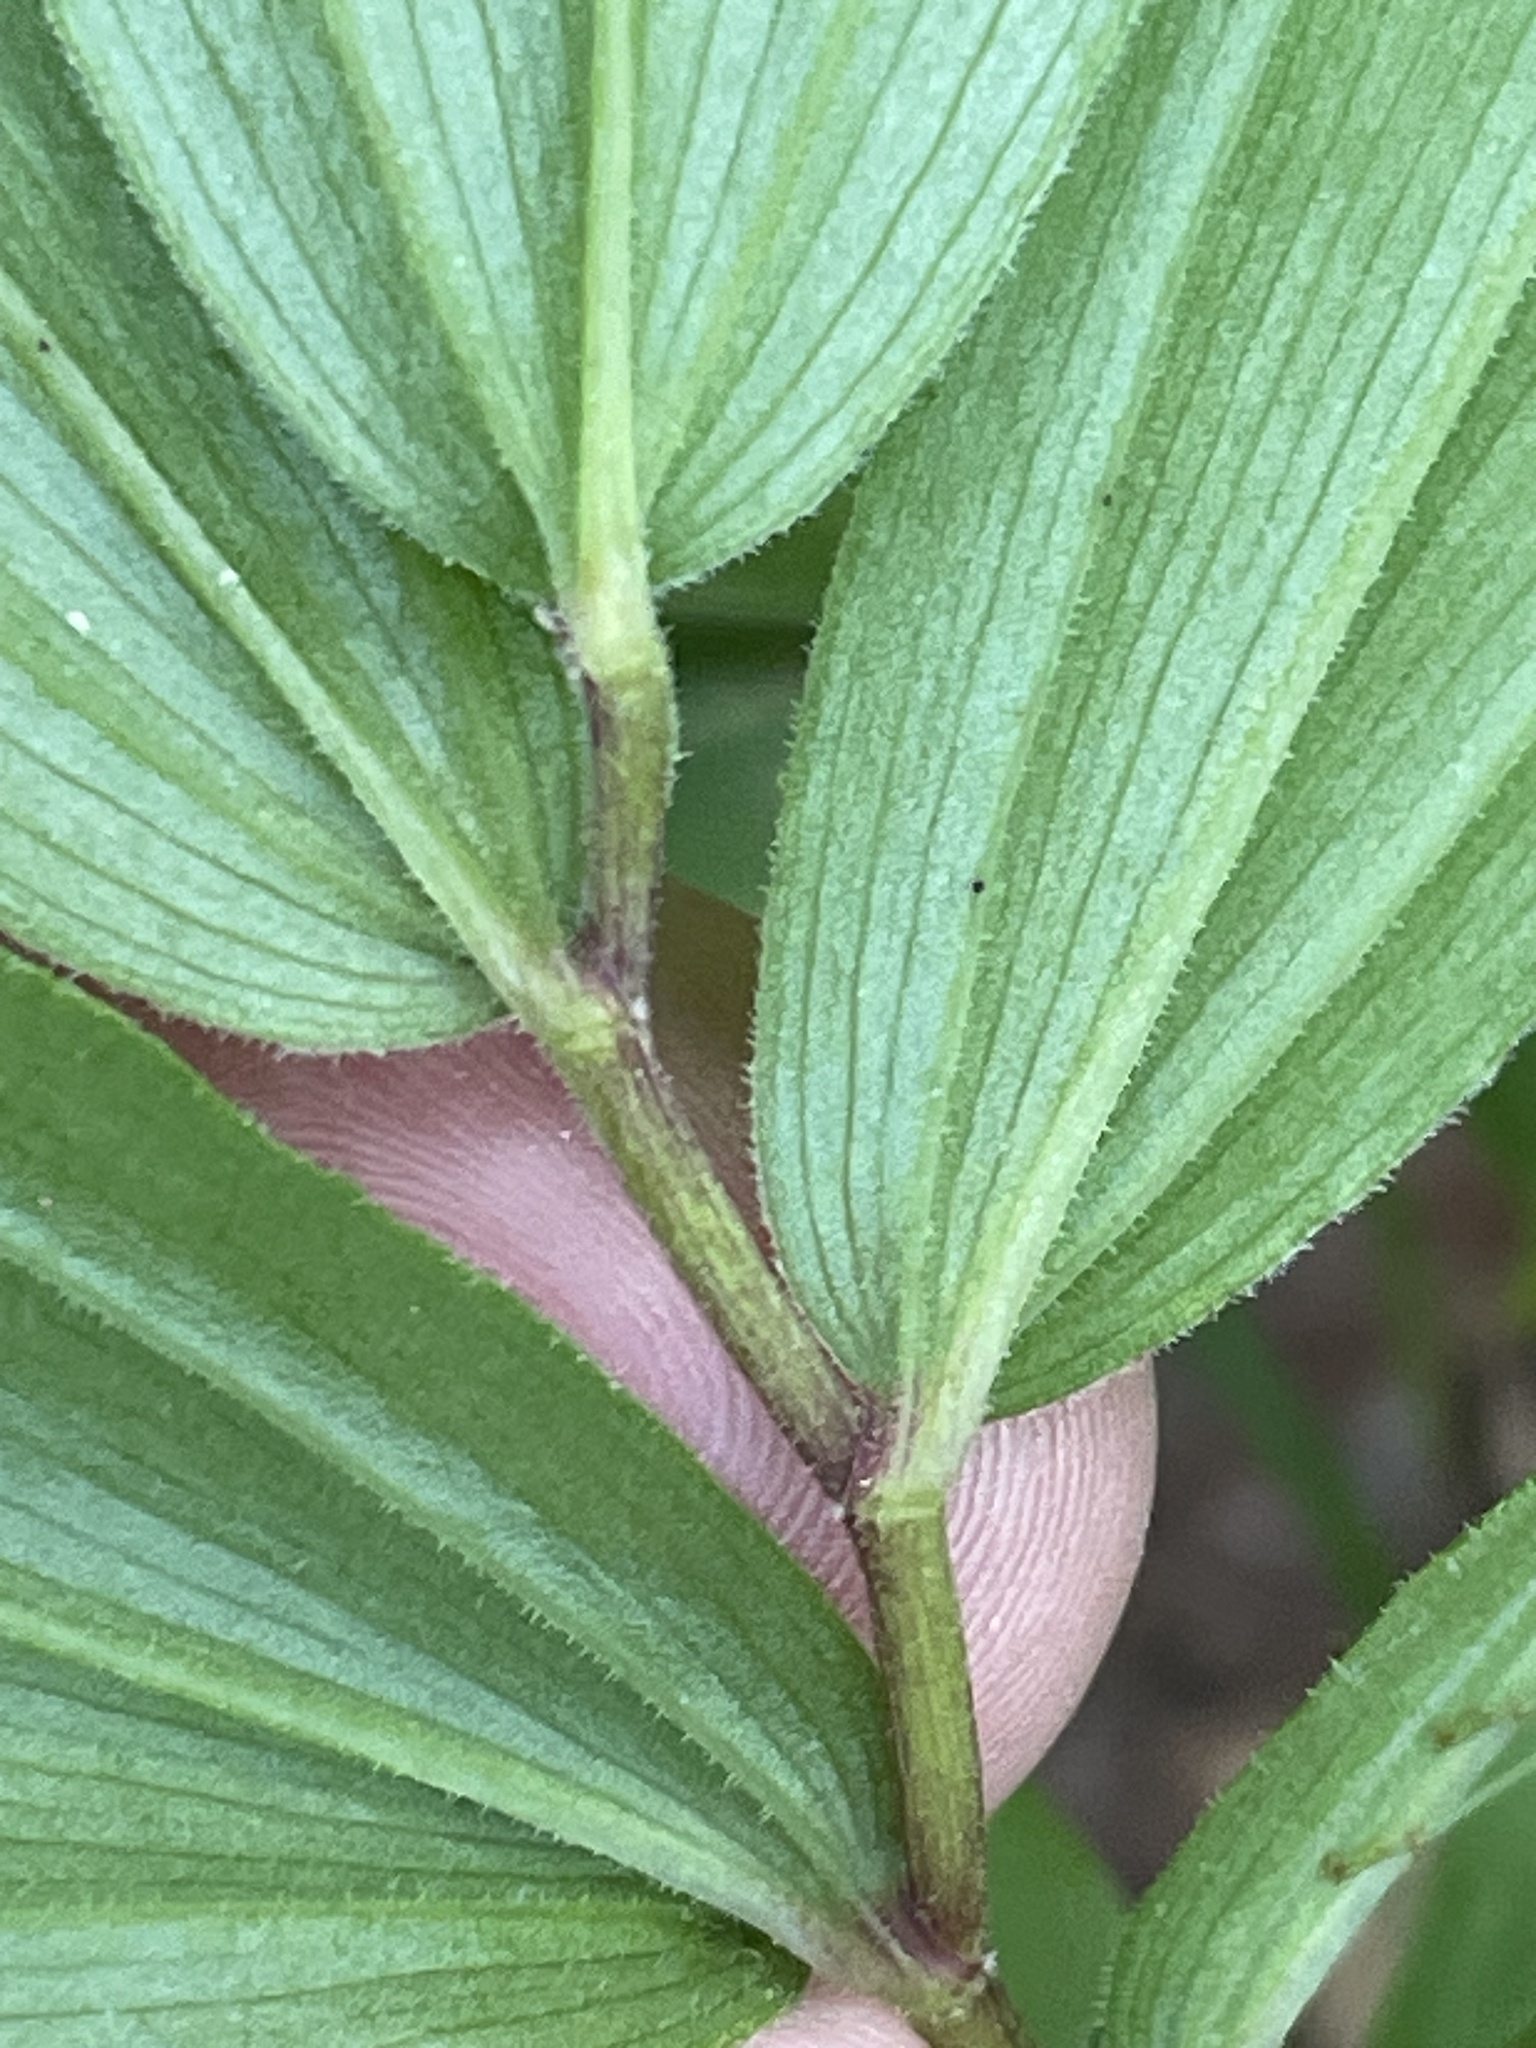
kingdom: Plantae
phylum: Tracheophyta
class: Liliopsida
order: Asparagales
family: Asparagaceae
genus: Maianthemum
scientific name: Maianthemum racemosum
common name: False spikenard
